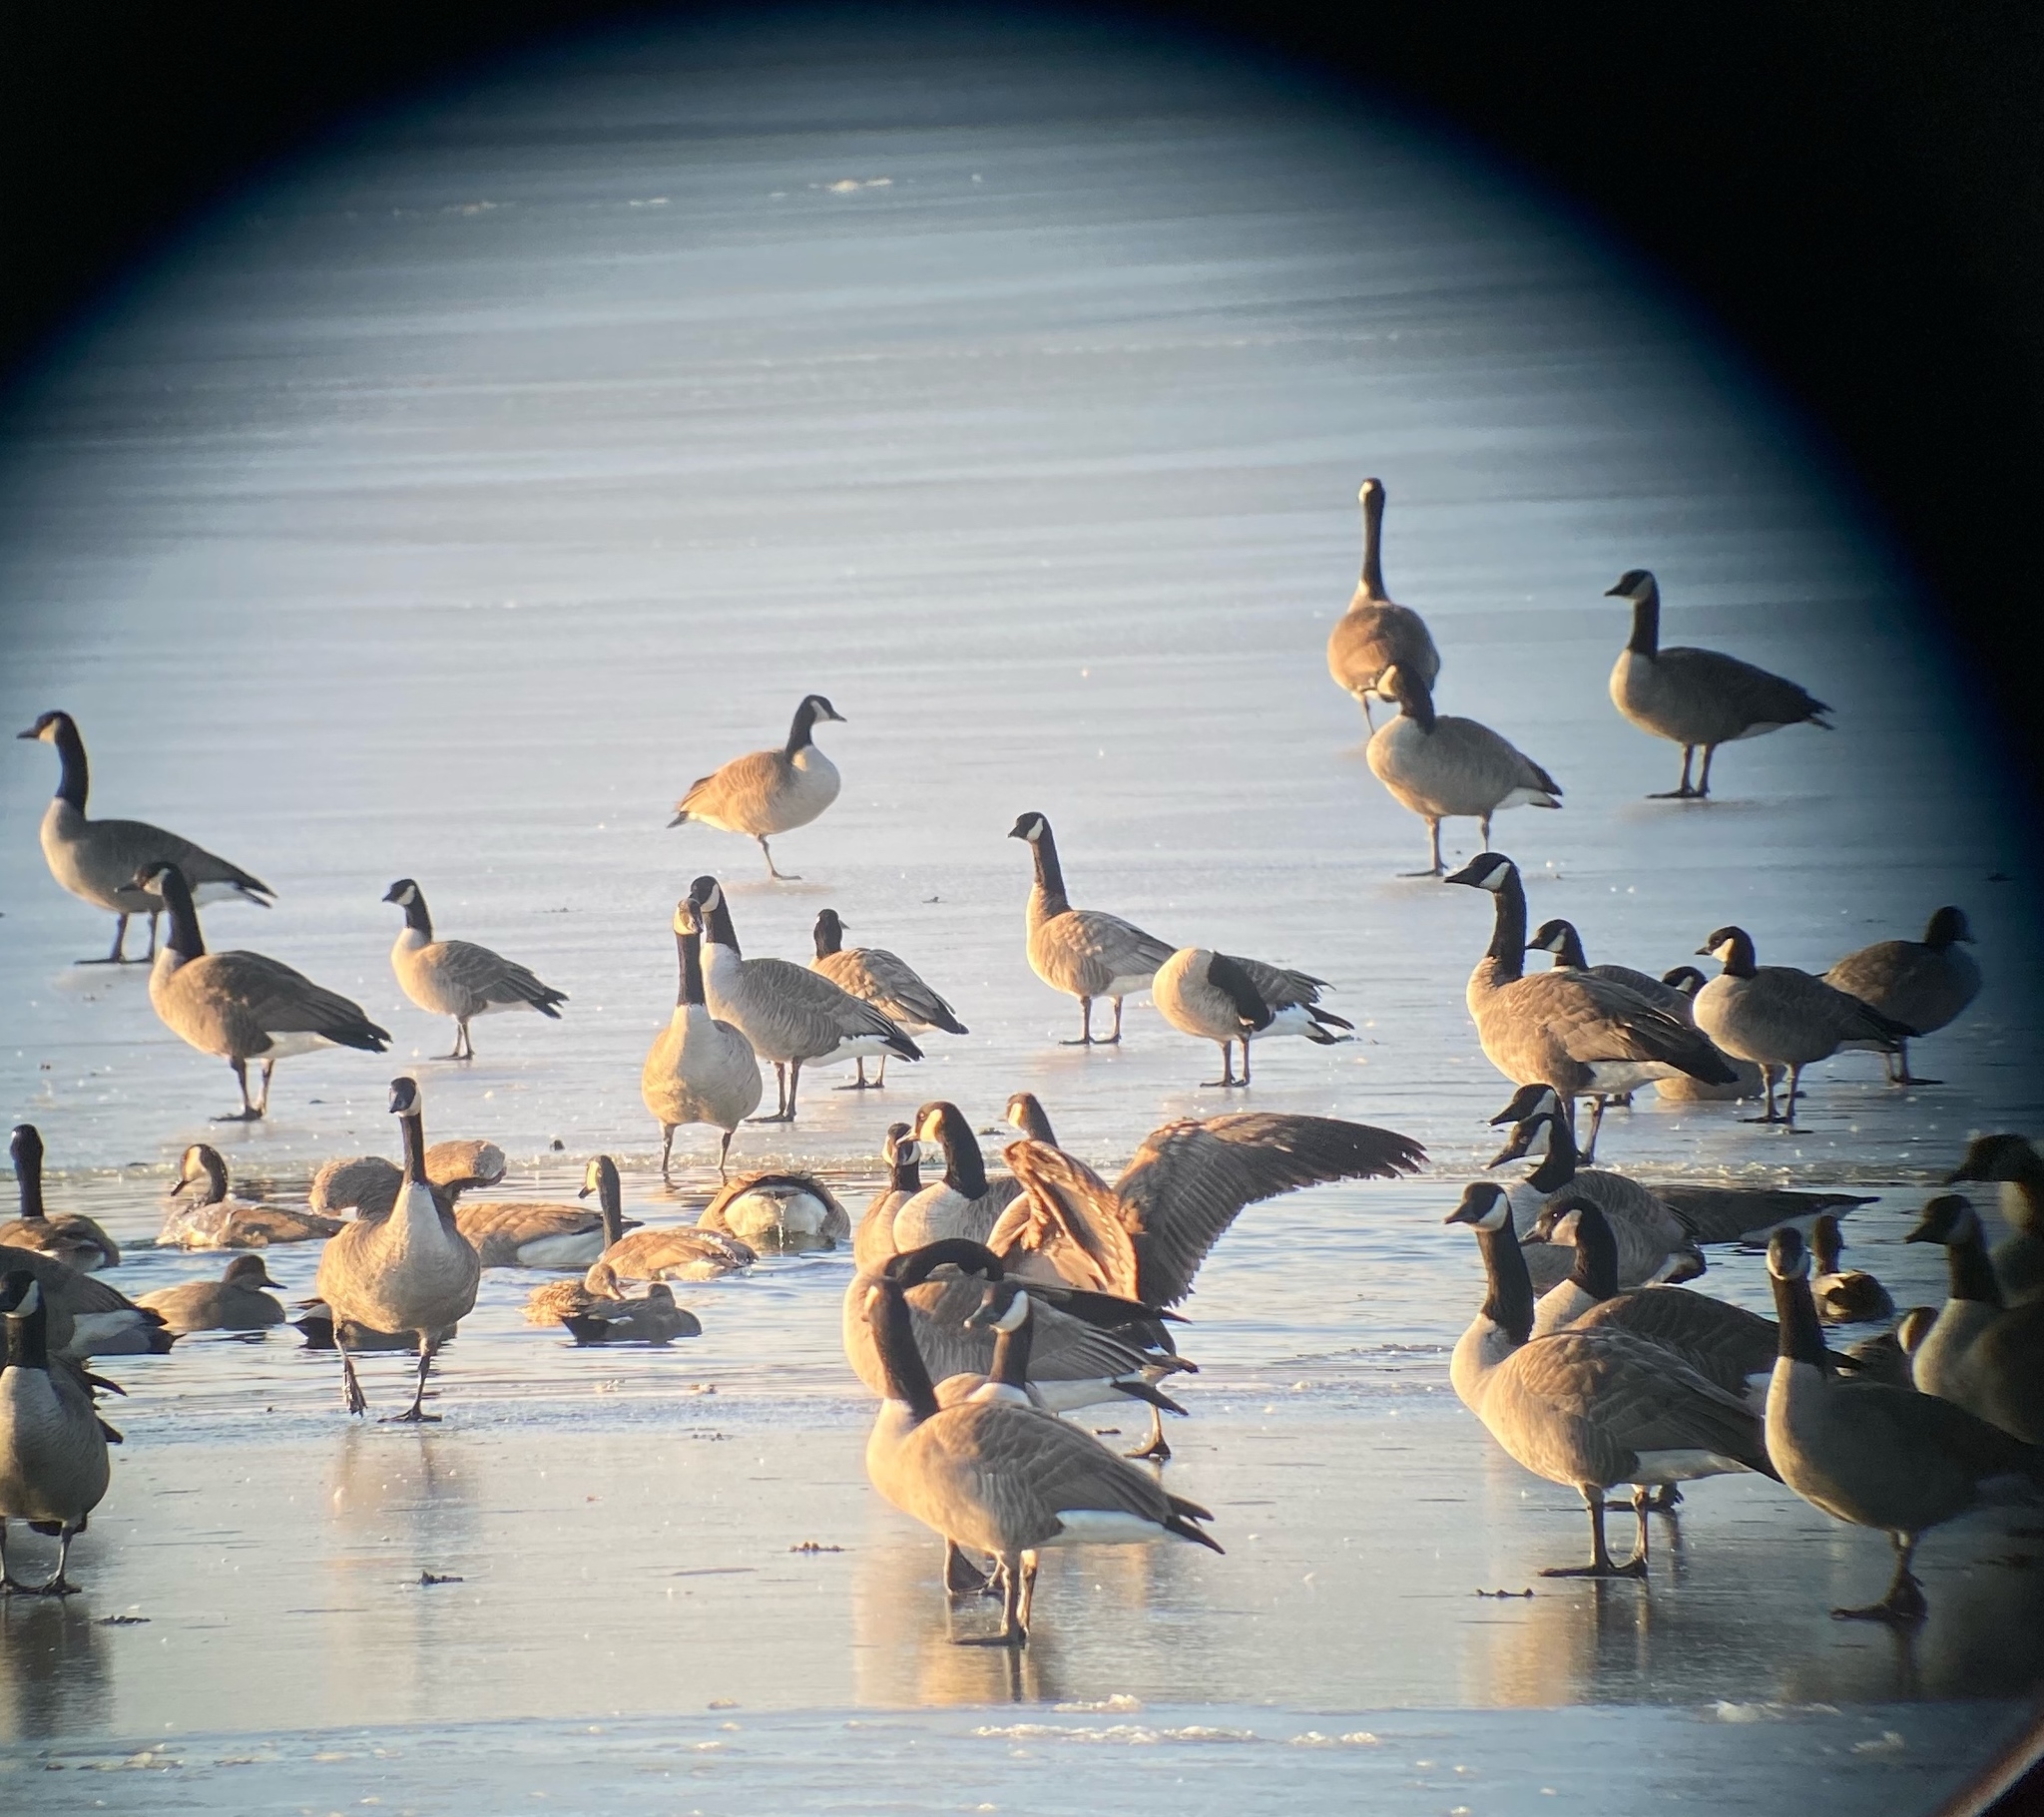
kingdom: Animalia
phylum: Chordata
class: Aves
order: Anseriformes
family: Anatidae
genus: Branta
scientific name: Branta hutchinsii
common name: Cackling goose
